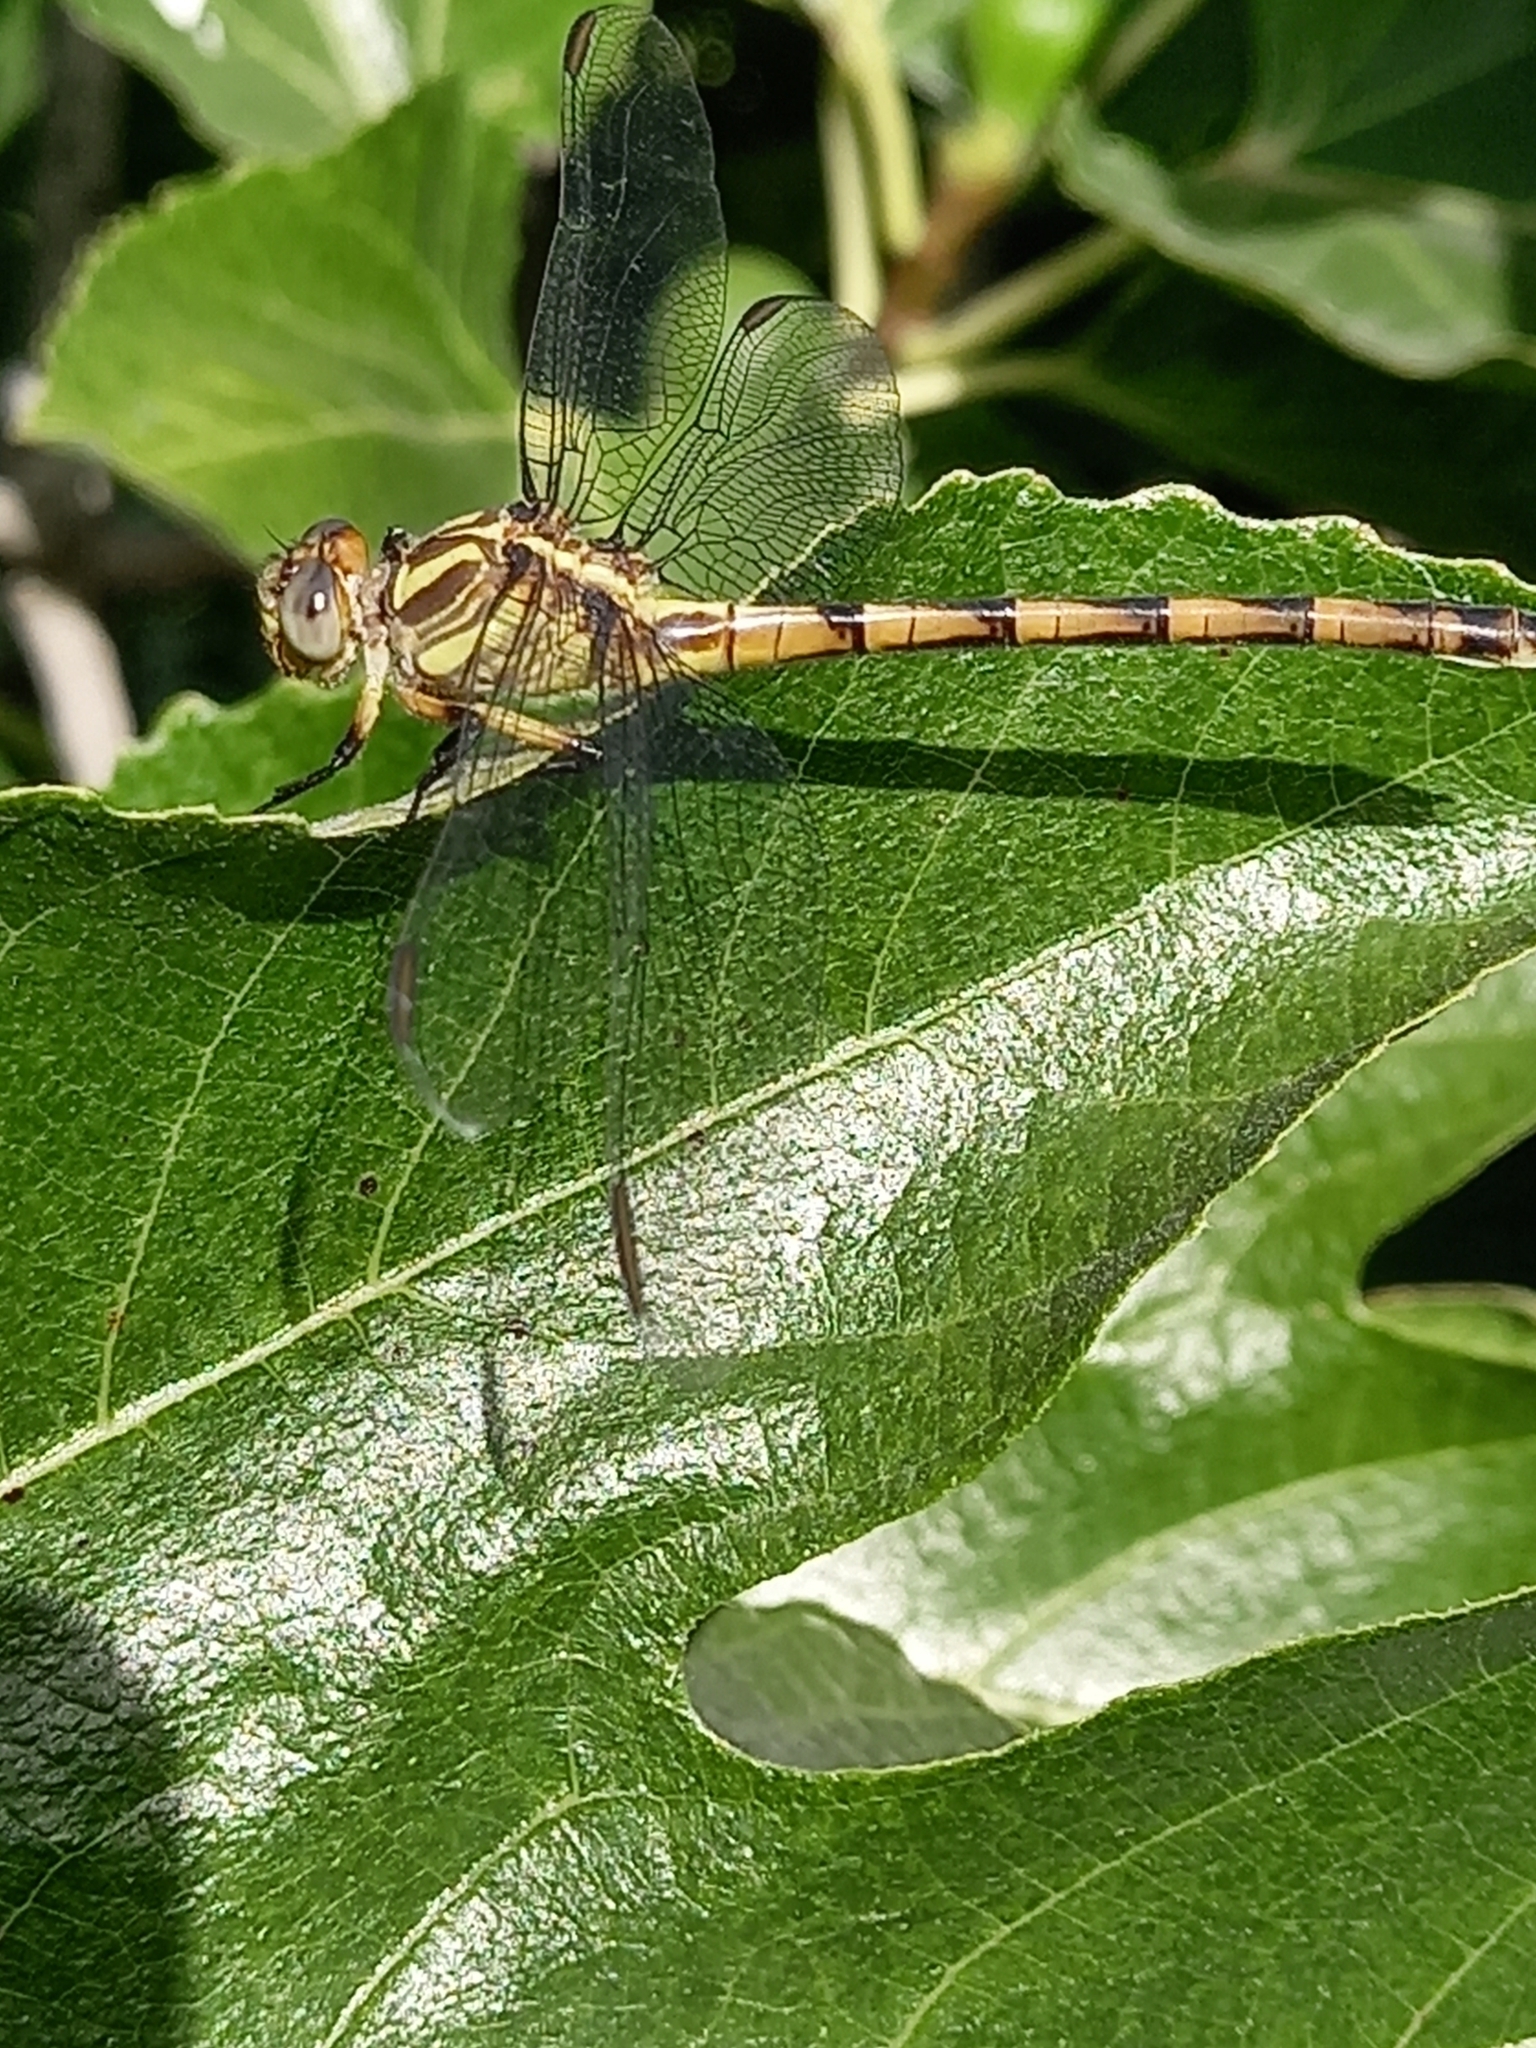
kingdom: Animalia
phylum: Arthropoda
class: Insecta
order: Odonata
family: Gomphidae
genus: Phyllocycla
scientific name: Phyllocycla argentina
